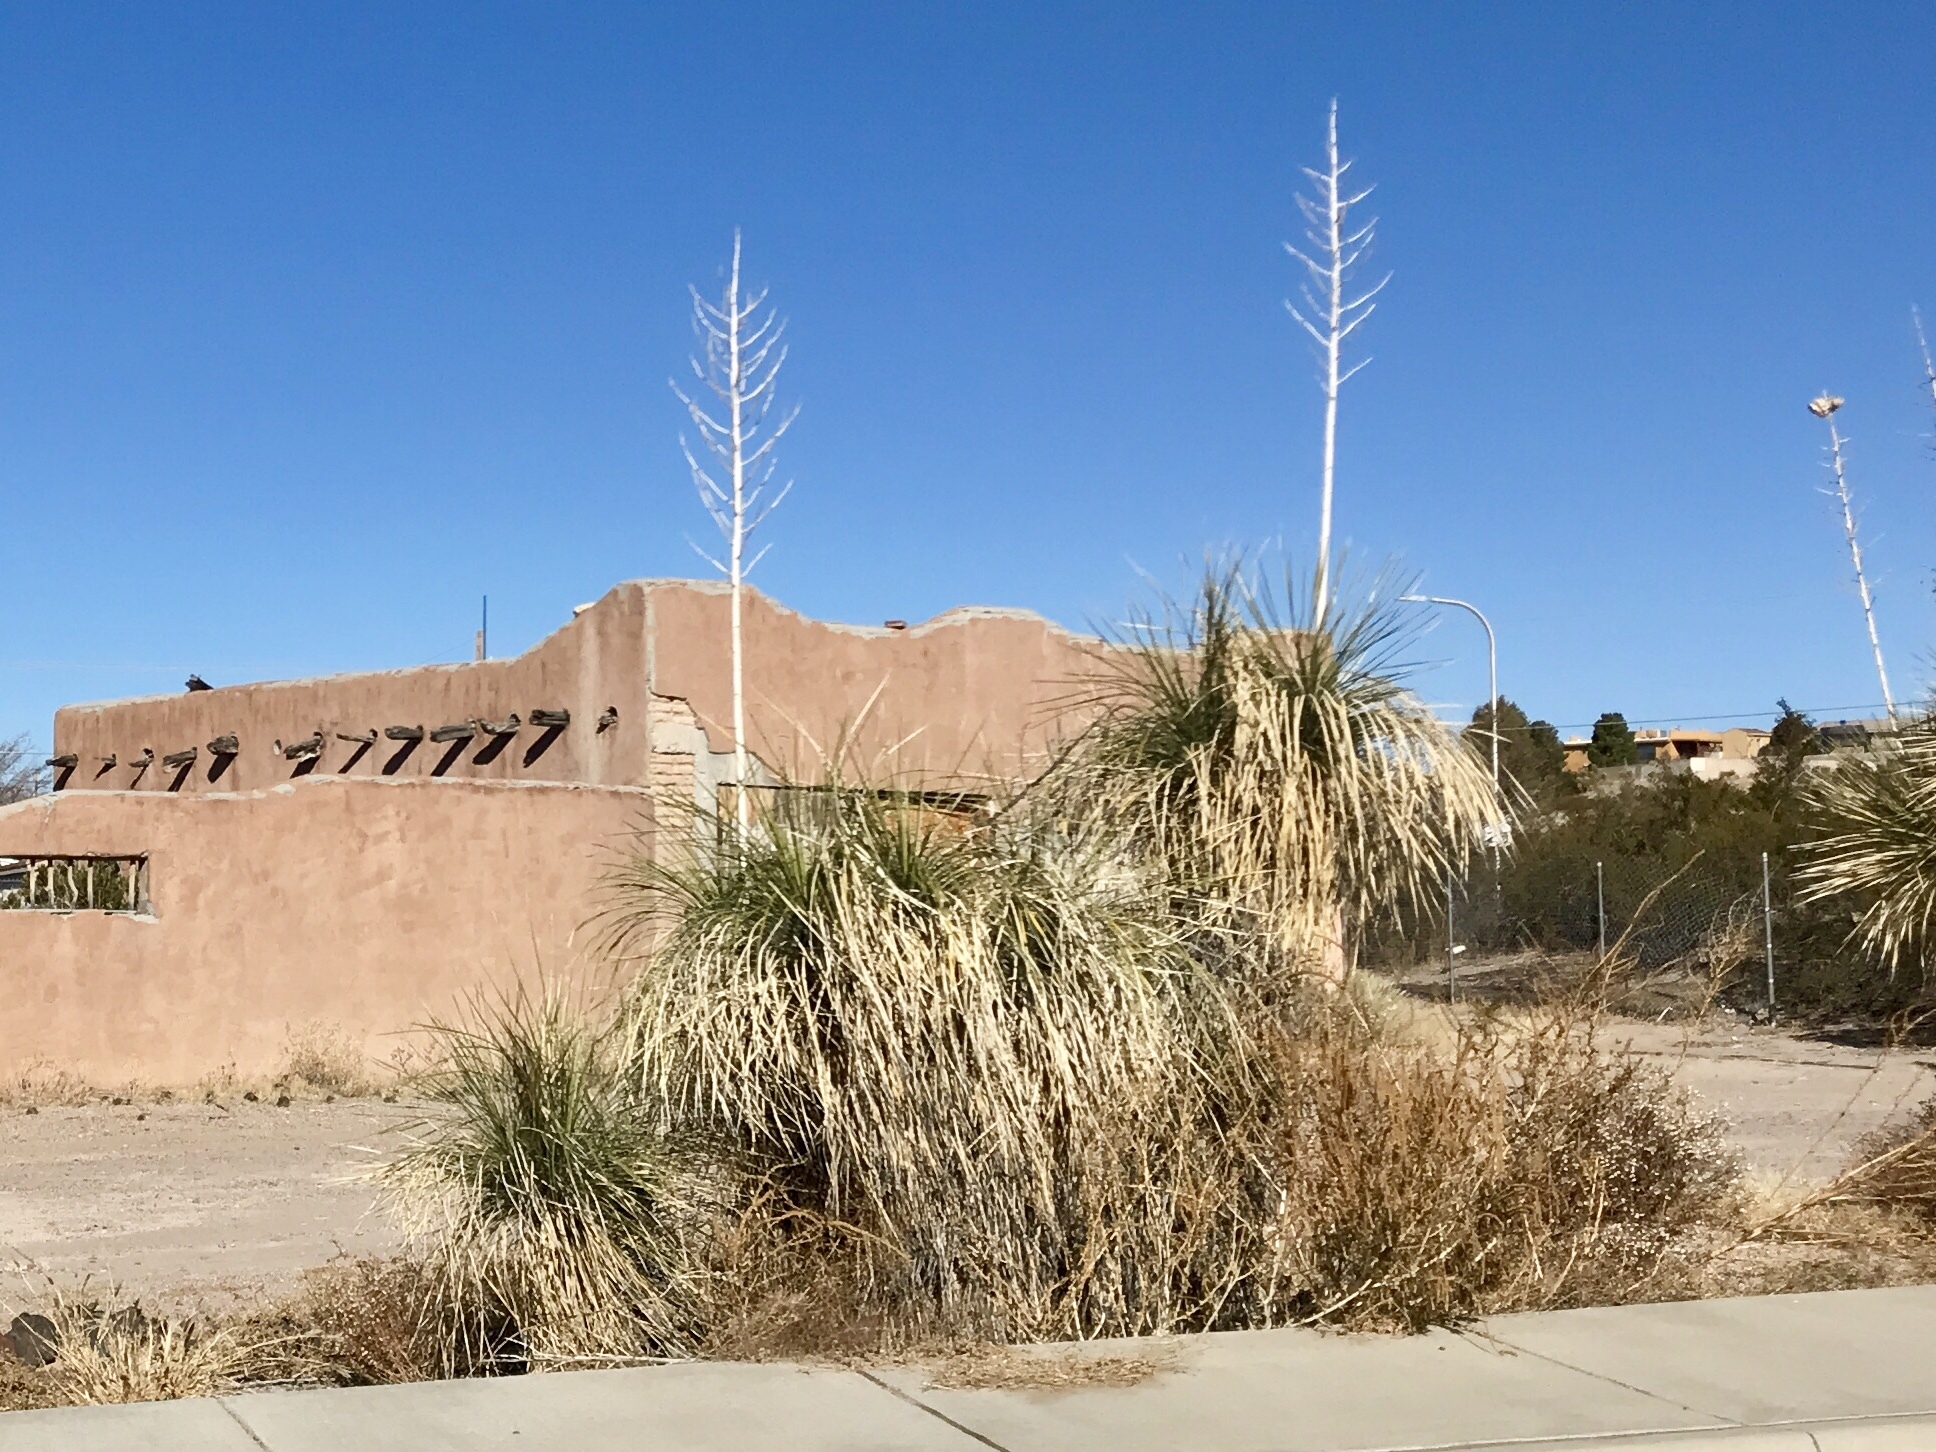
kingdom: Plantae
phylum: Tracheophyta
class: Liliopsida
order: Asparagales
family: Asparagaceae
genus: Yucca
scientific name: Yucca elata
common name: Palmella
